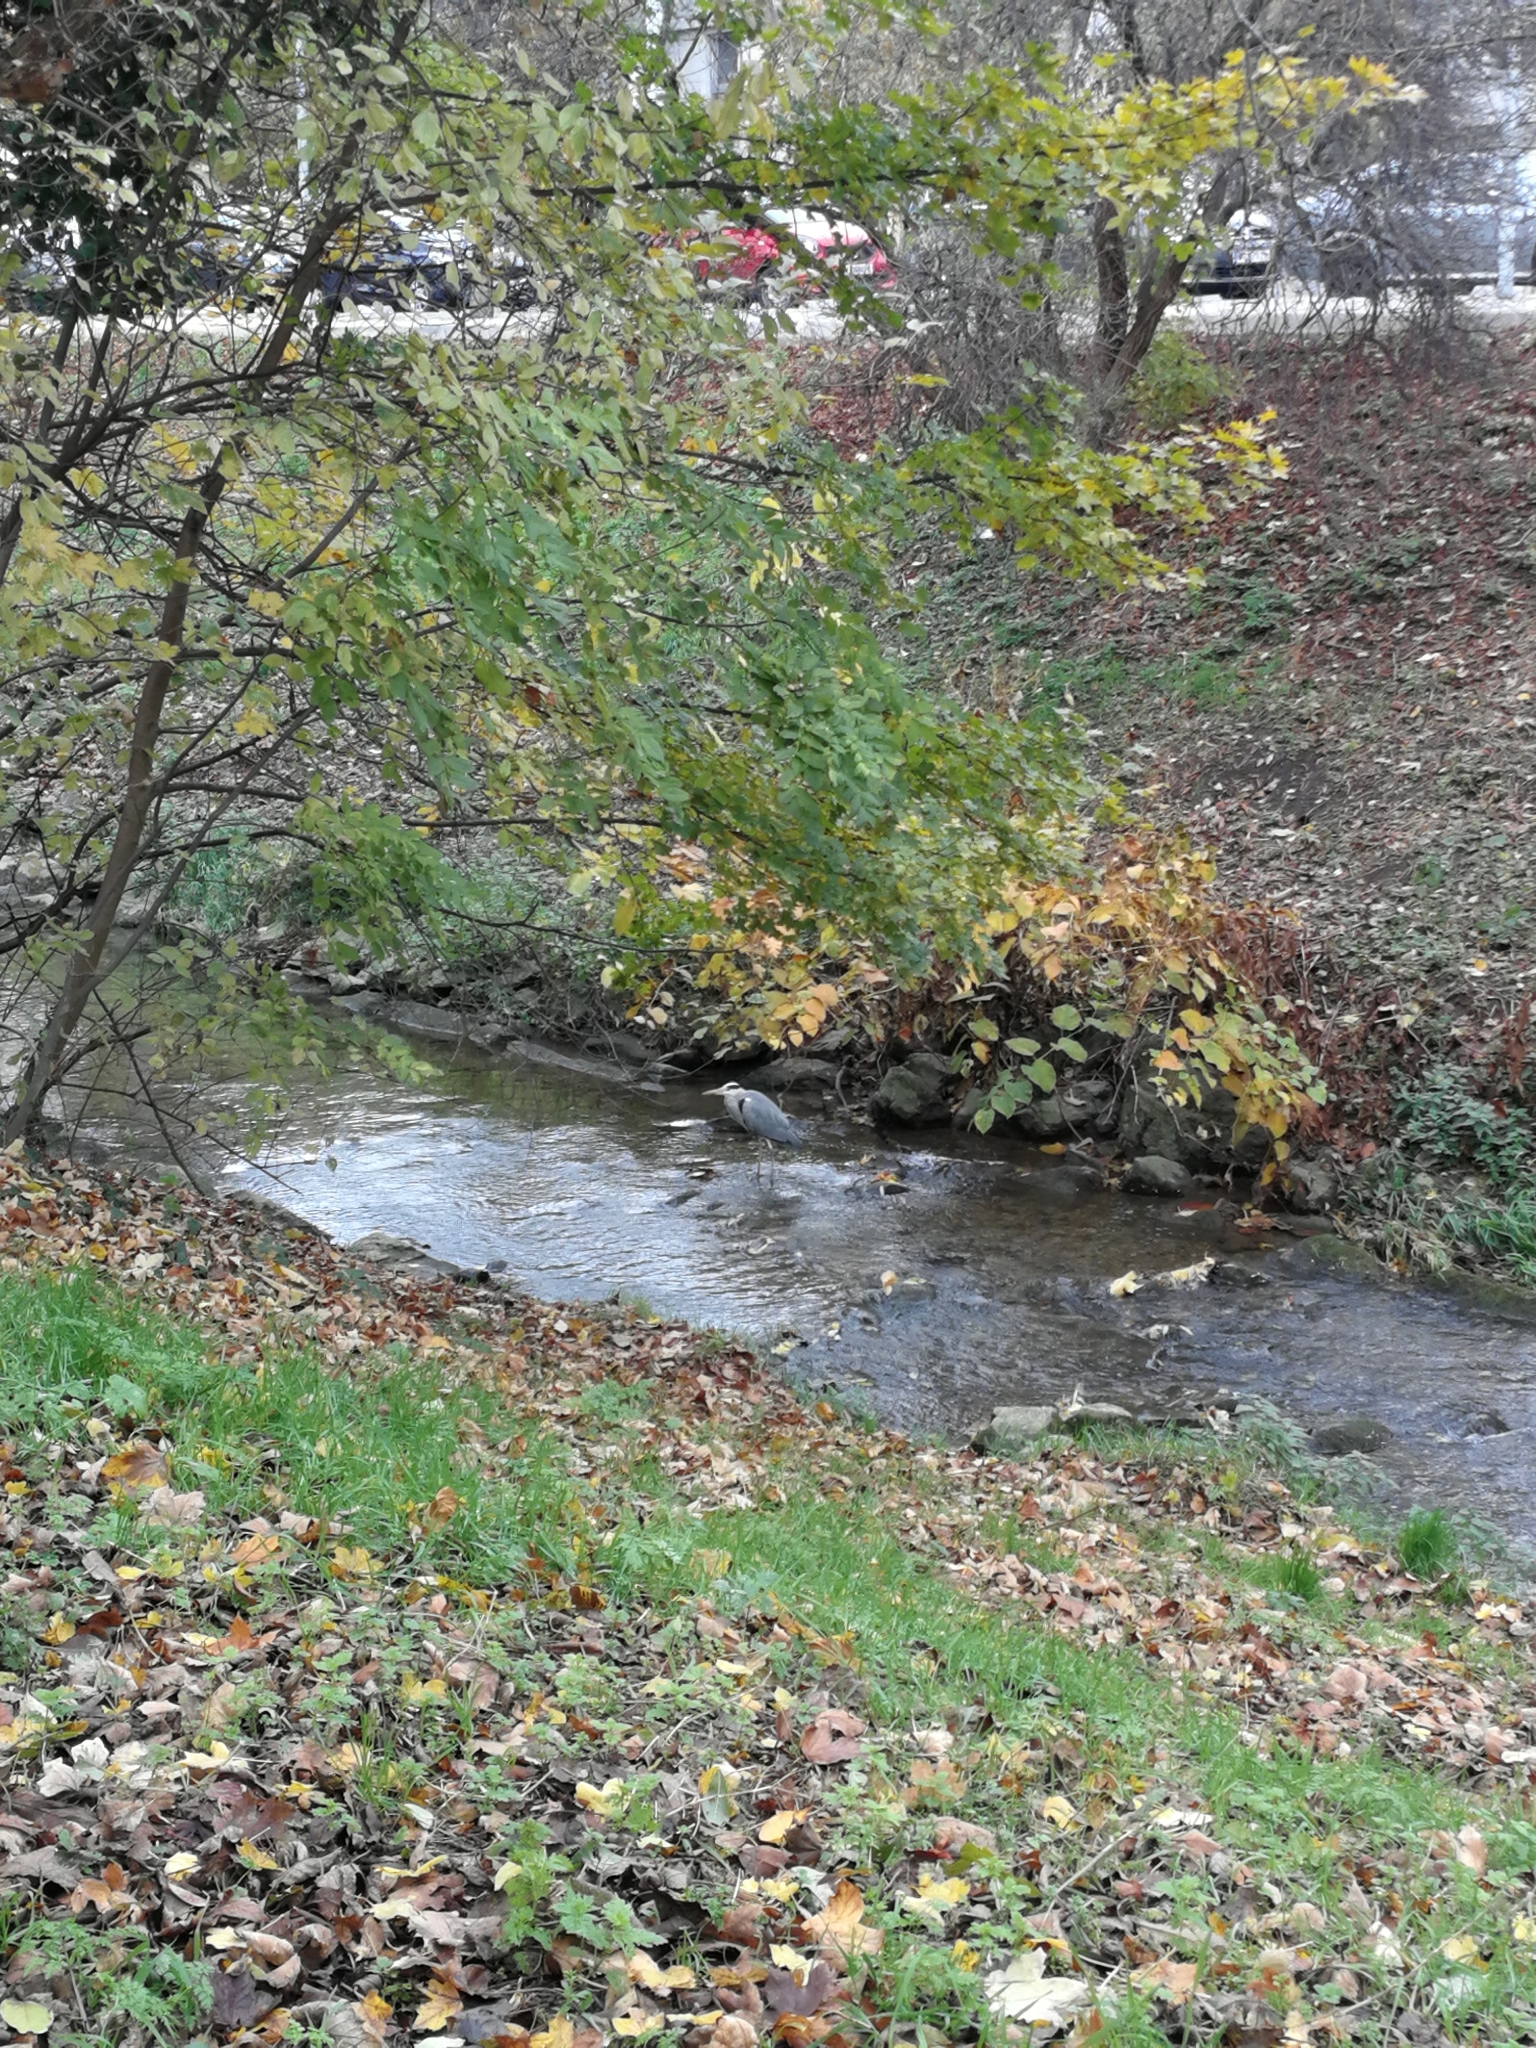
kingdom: Animalia
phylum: Chordata
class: Aves
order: Pelecaniformes
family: Ardeidae
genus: Ardea
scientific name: Ardea cinerea
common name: Grey heron
